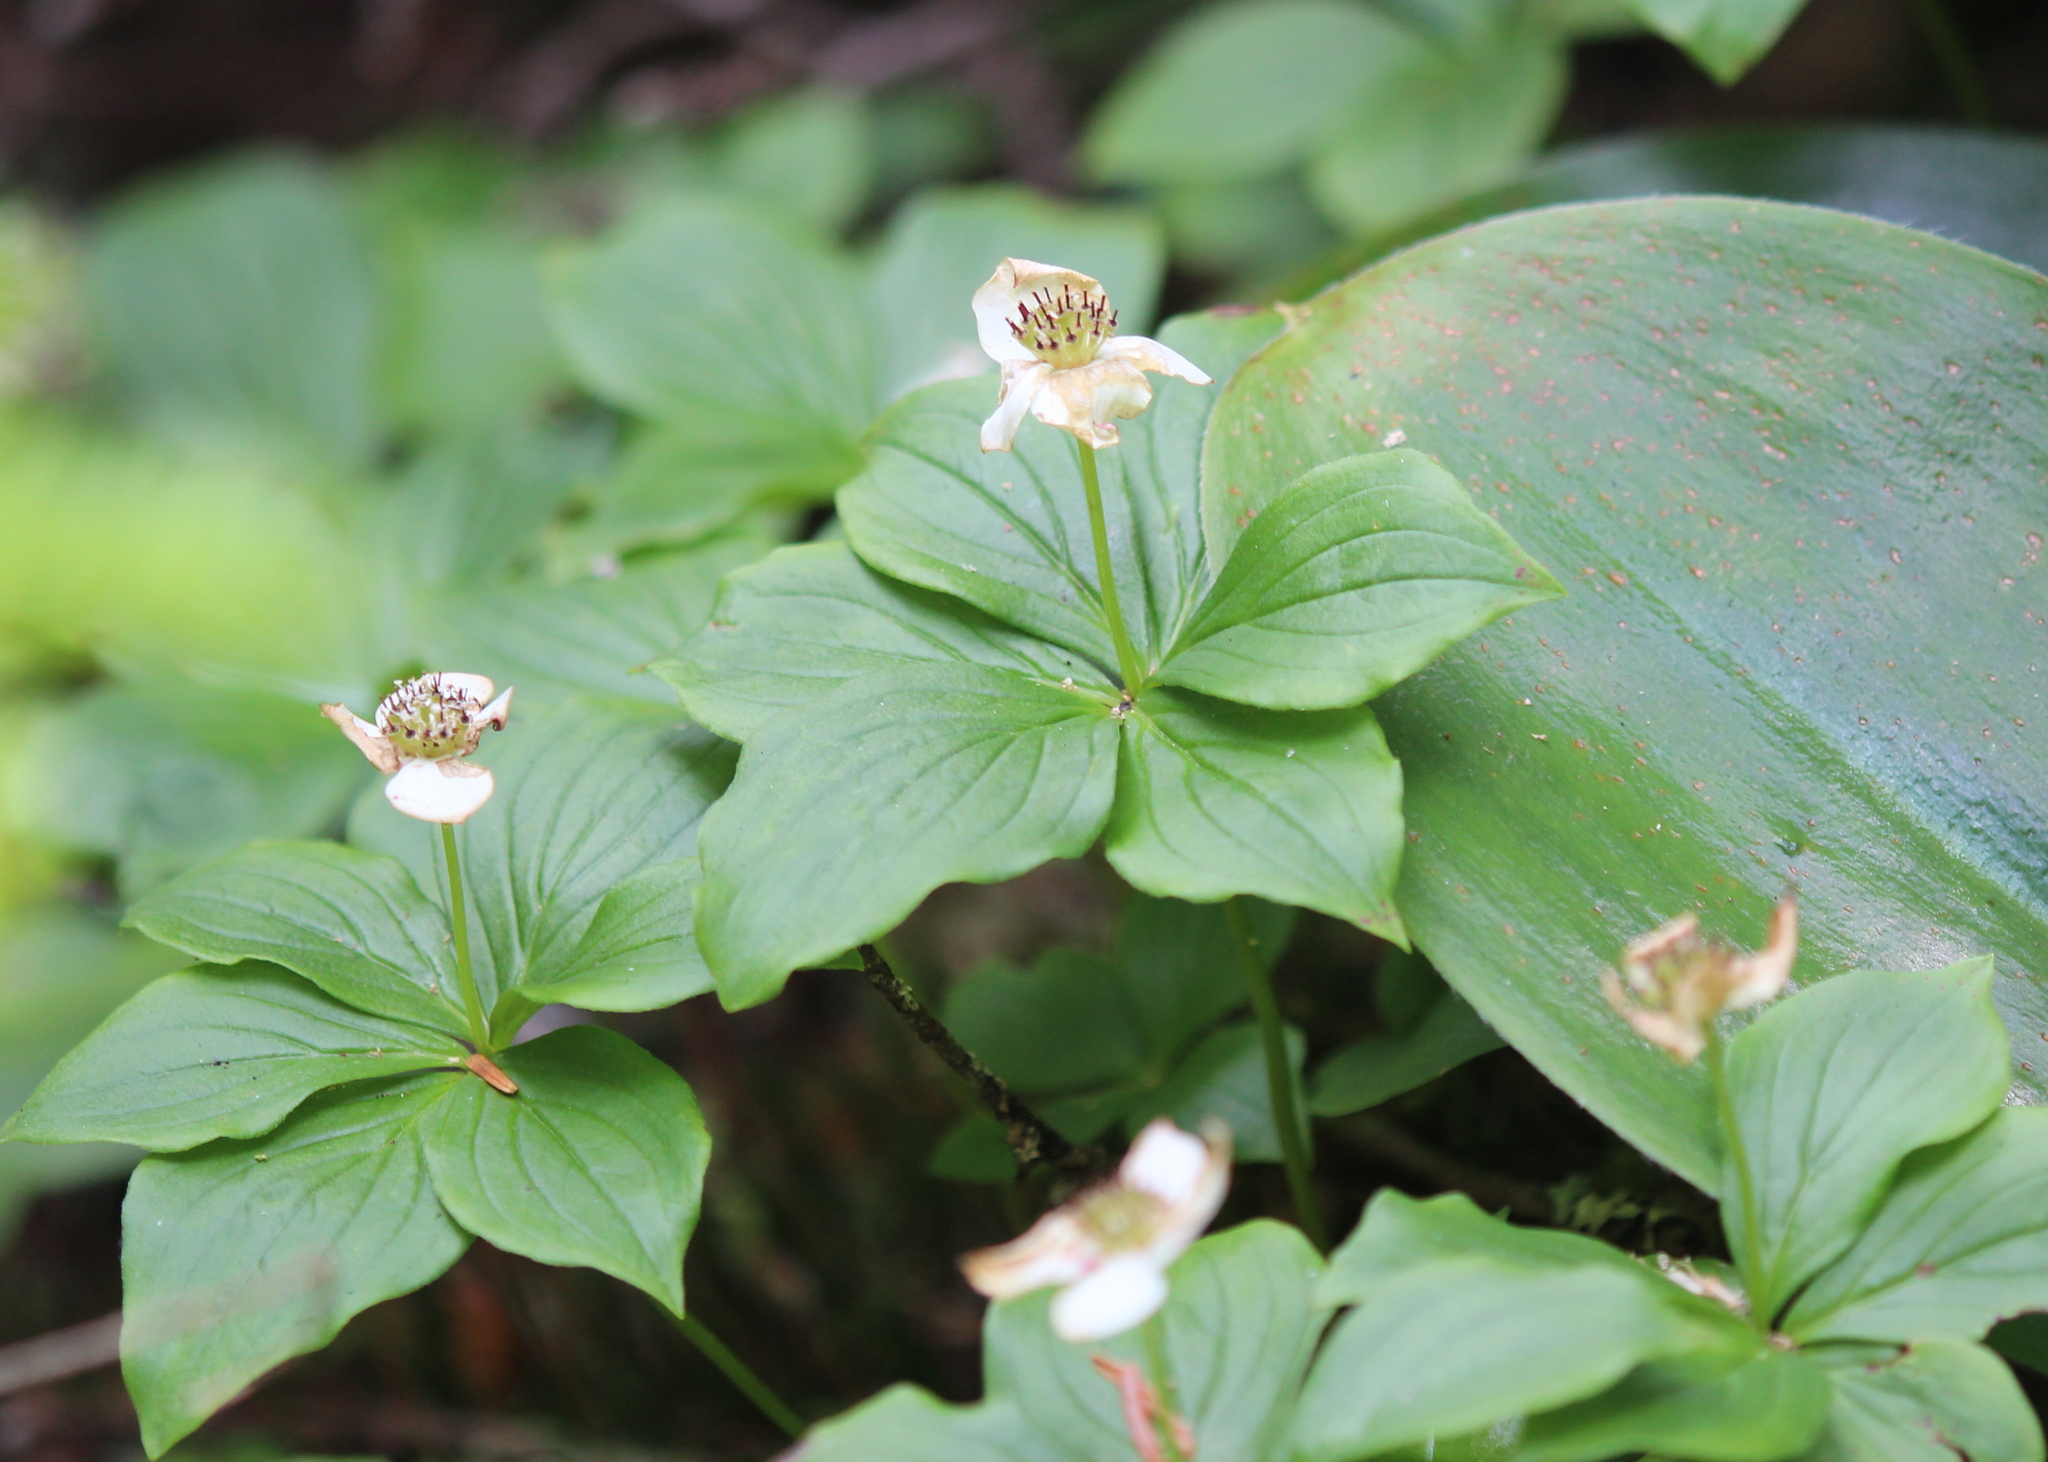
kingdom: Plantae
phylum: Tracheophyta
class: Magnoliopsida
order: Cornales
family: Cornaceae
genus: Cornus
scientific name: Cornus canadensis
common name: Creeping dogwood
